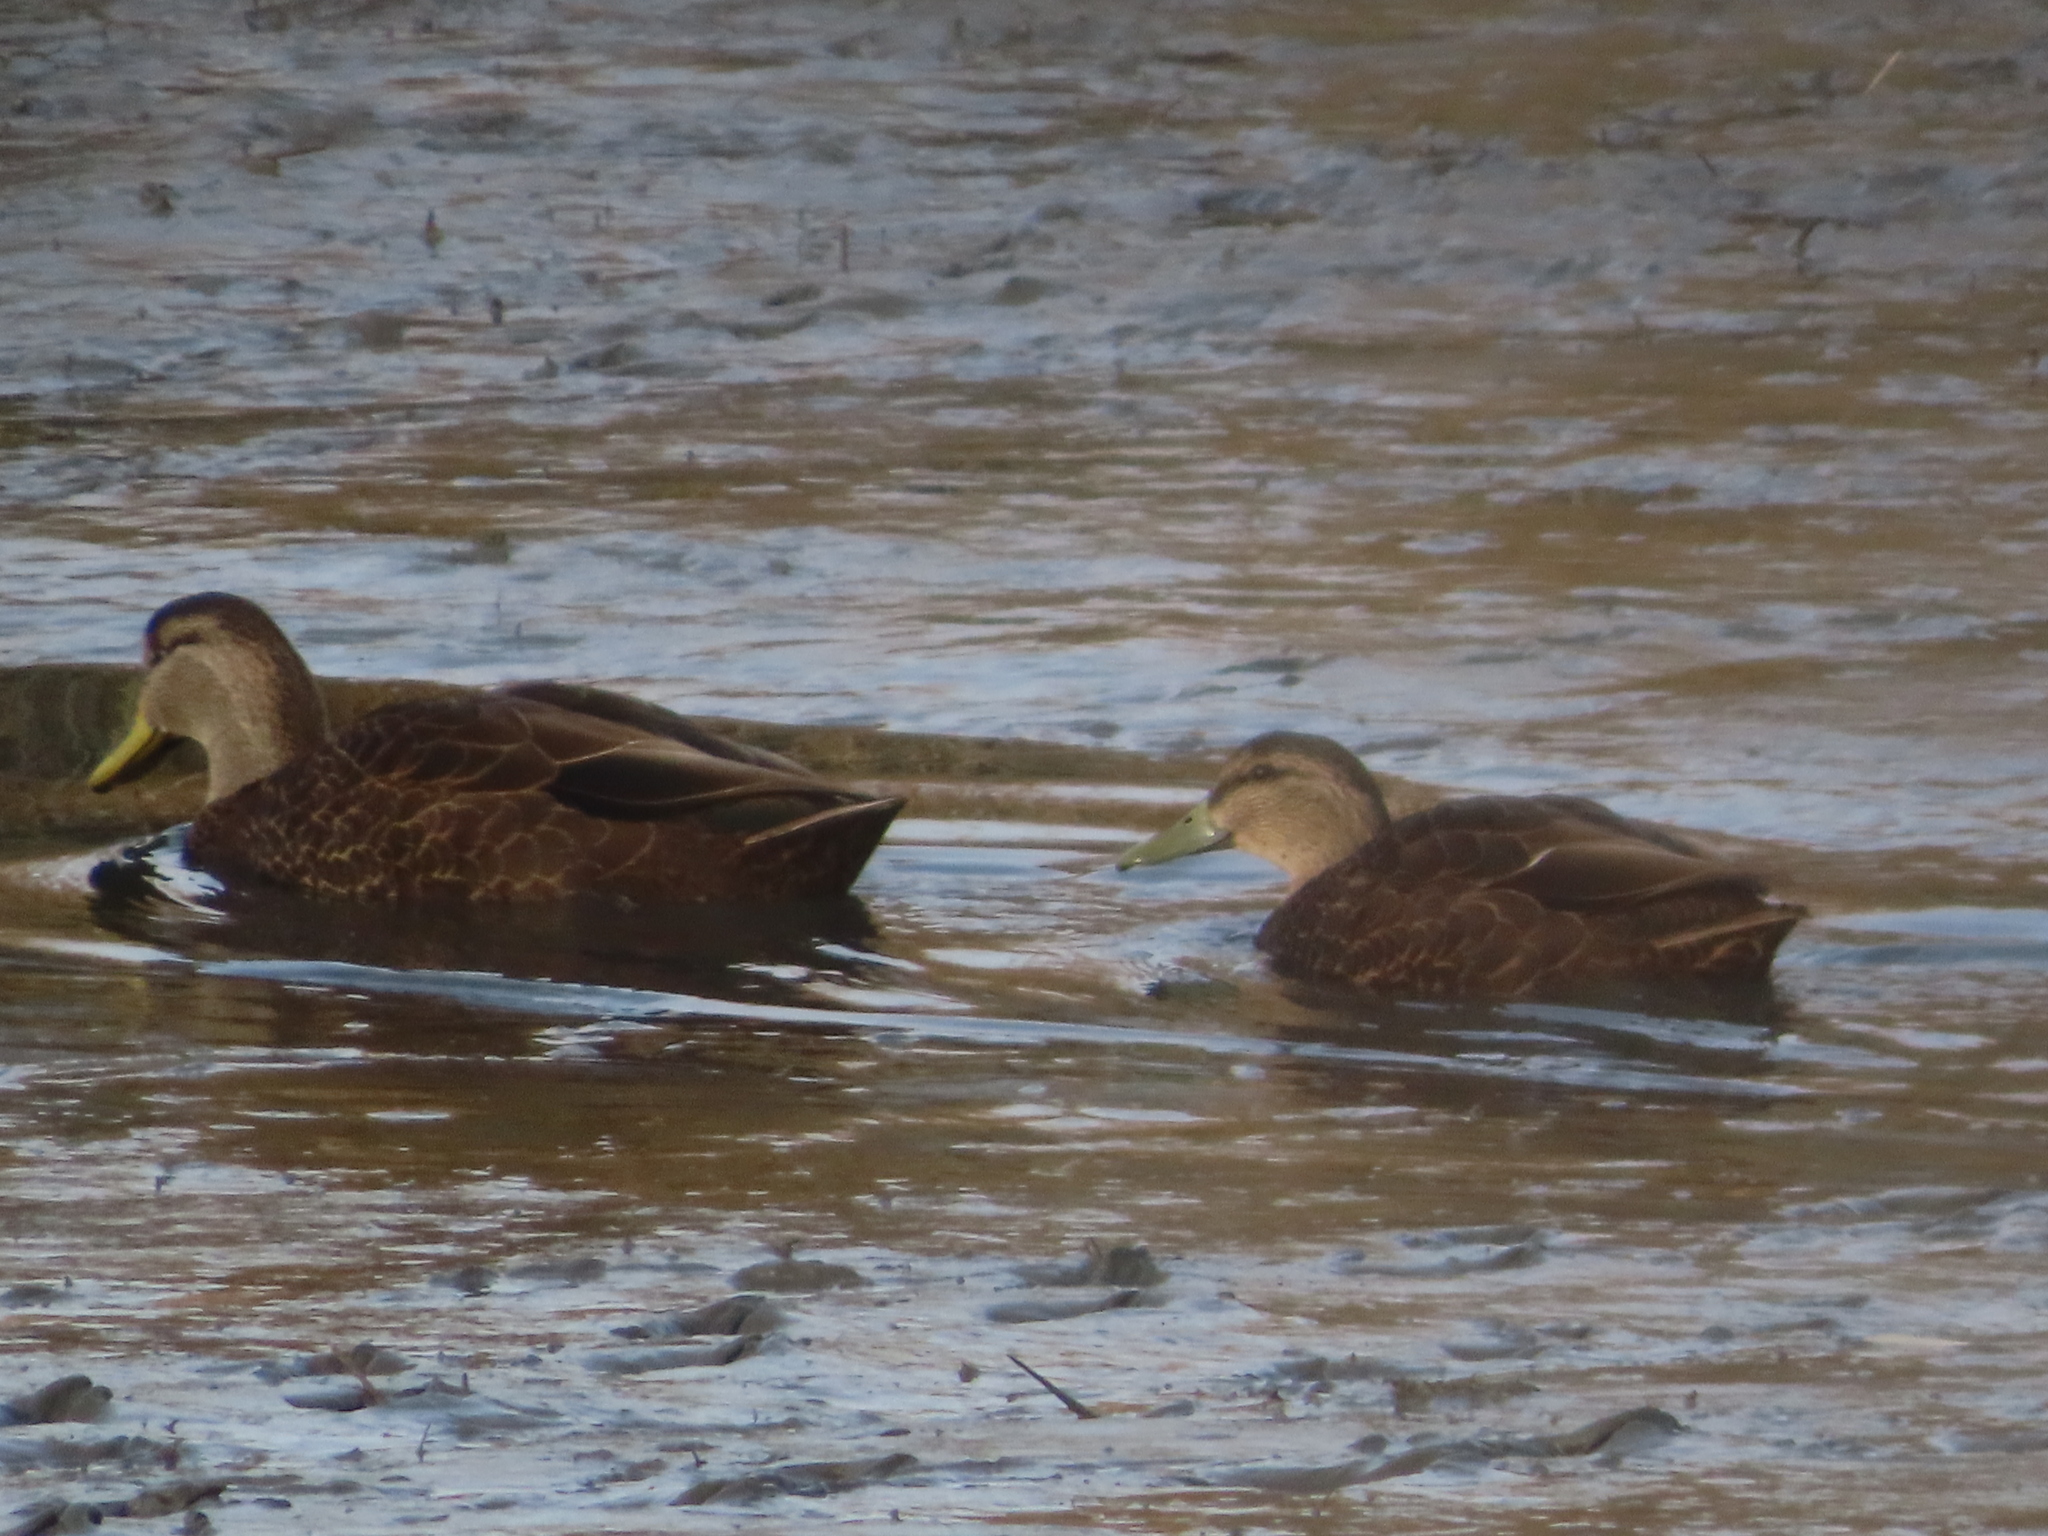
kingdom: Animalia
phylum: Chordata
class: Aves
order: Anseriformes
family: Anatidae
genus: Anas
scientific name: Anas rubripes
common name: American black duck
